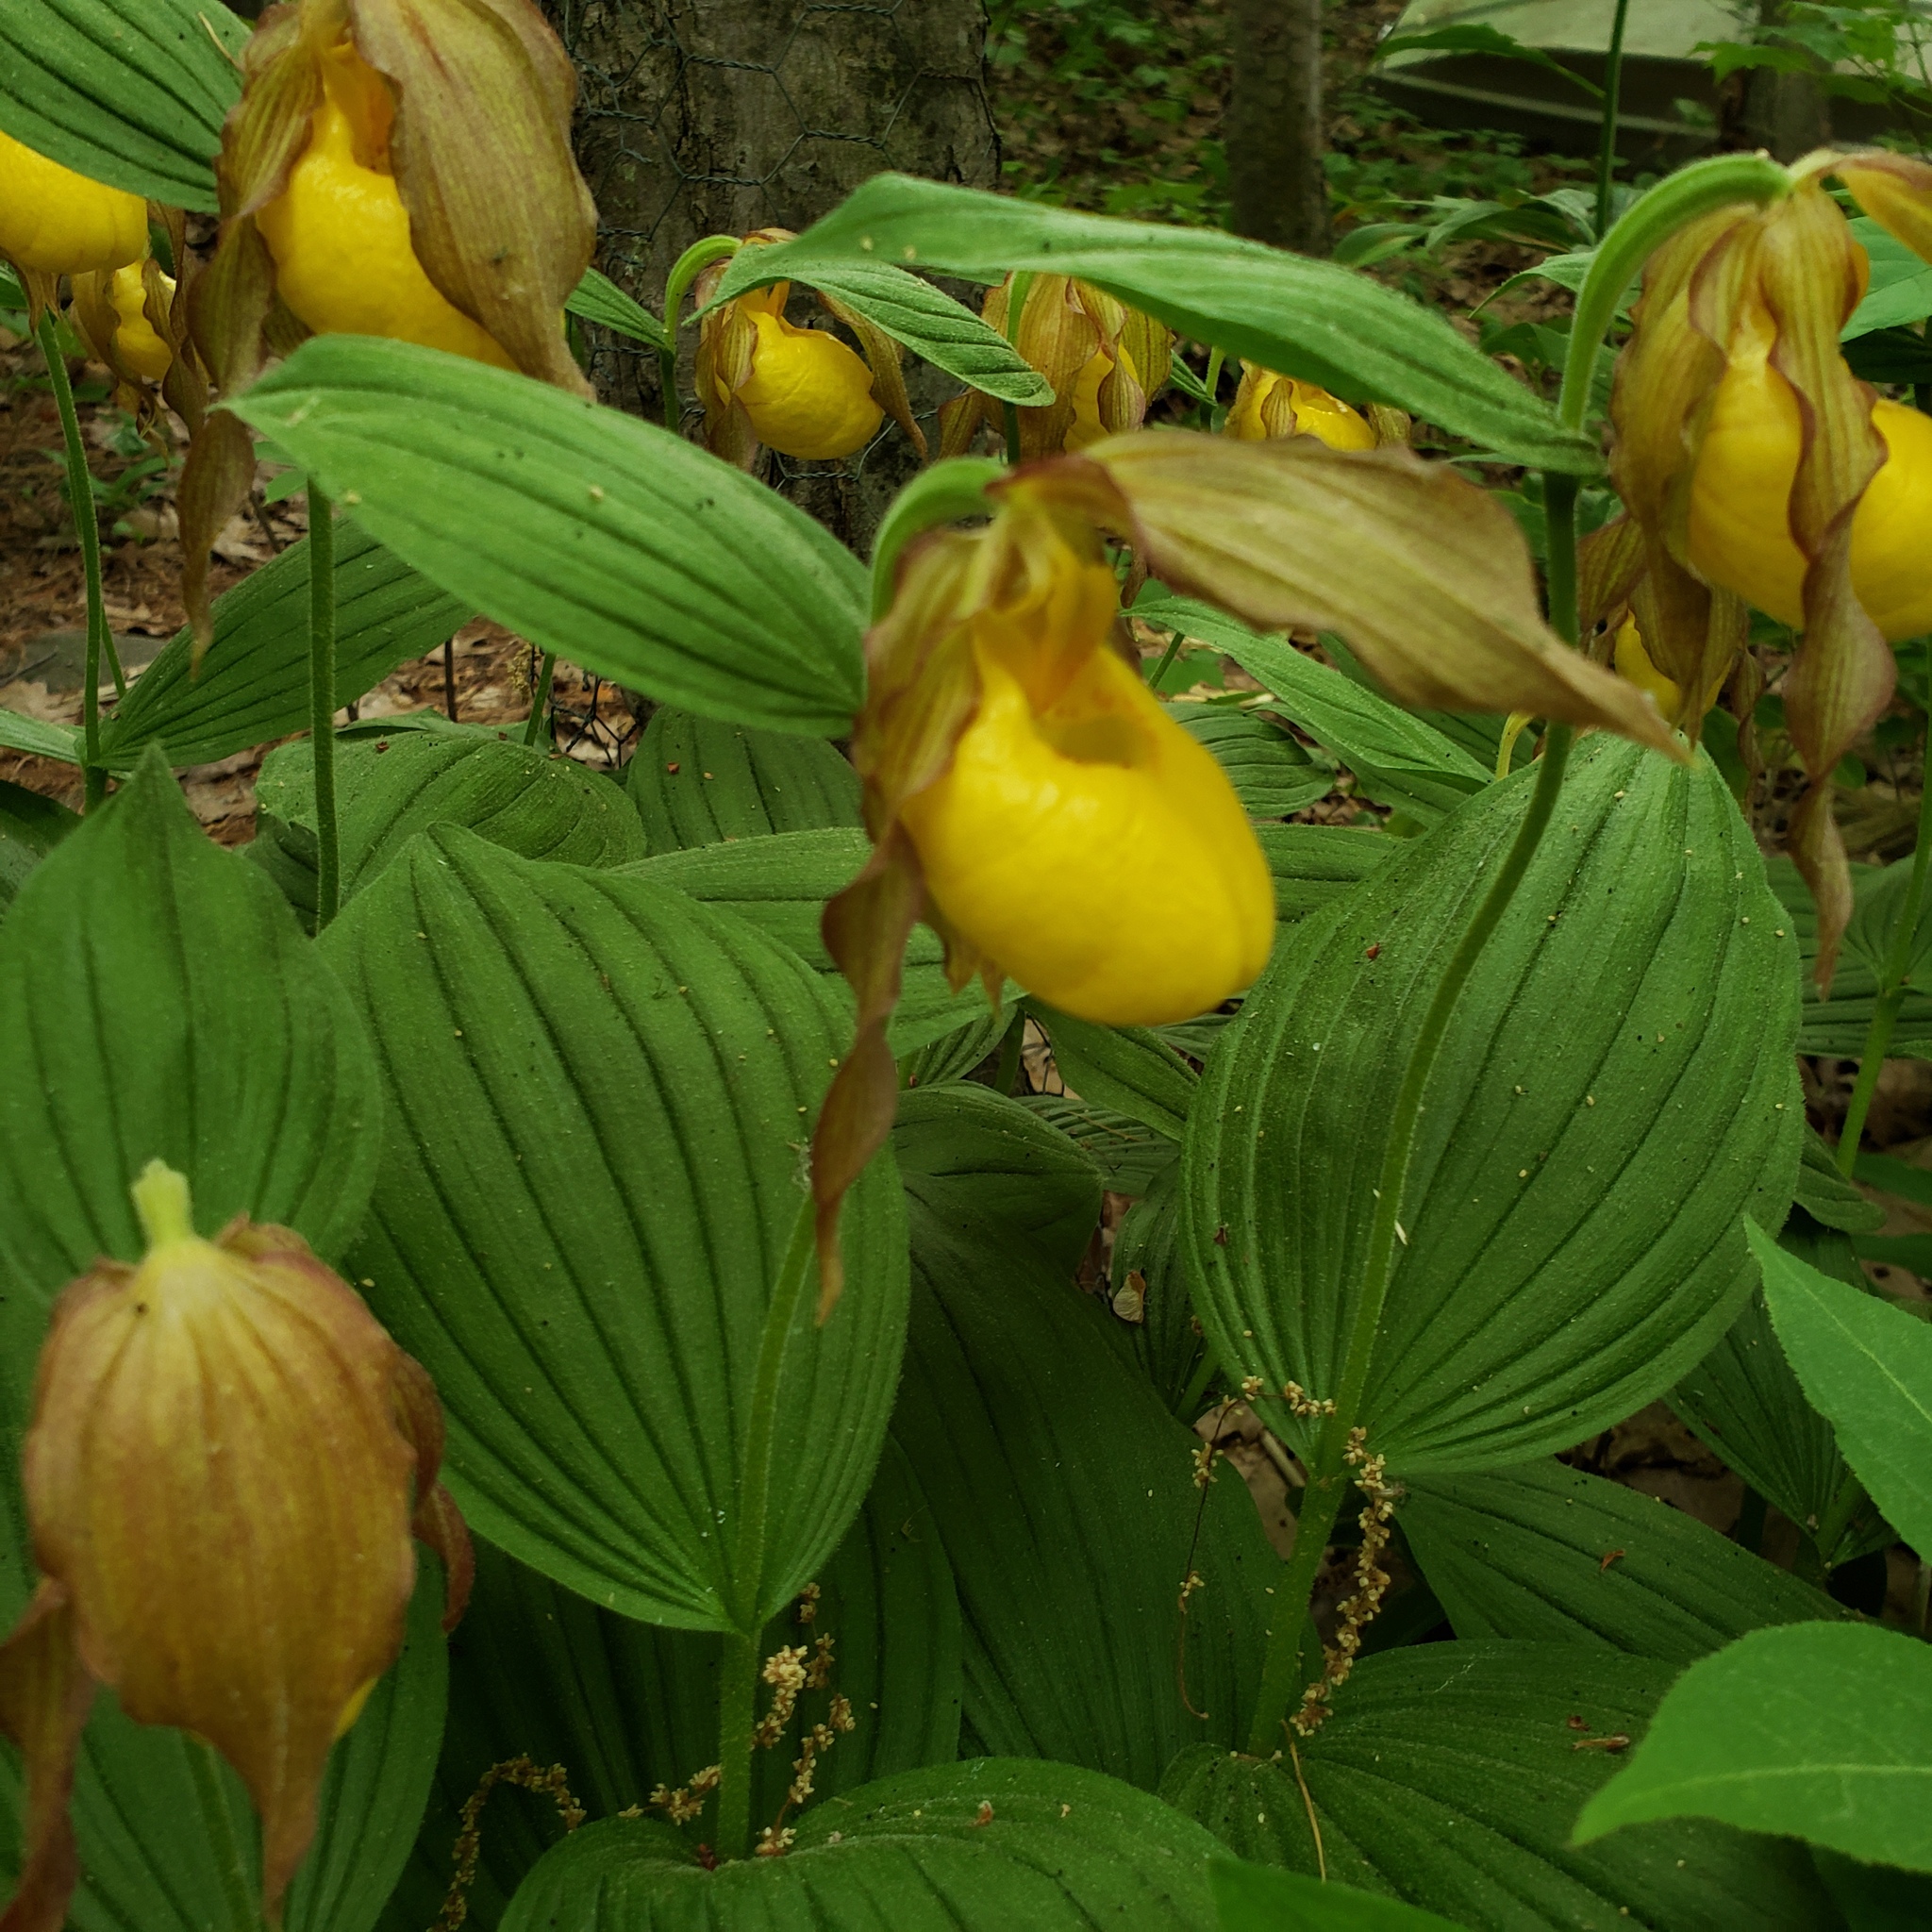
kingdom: Plantae
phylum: Tracheophyta
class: Liliopsida
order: Asparagales
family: Orchidaceae
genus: Cypripedium
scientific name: Cypripedium parviflorum
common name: American yellow lady's-slipper
